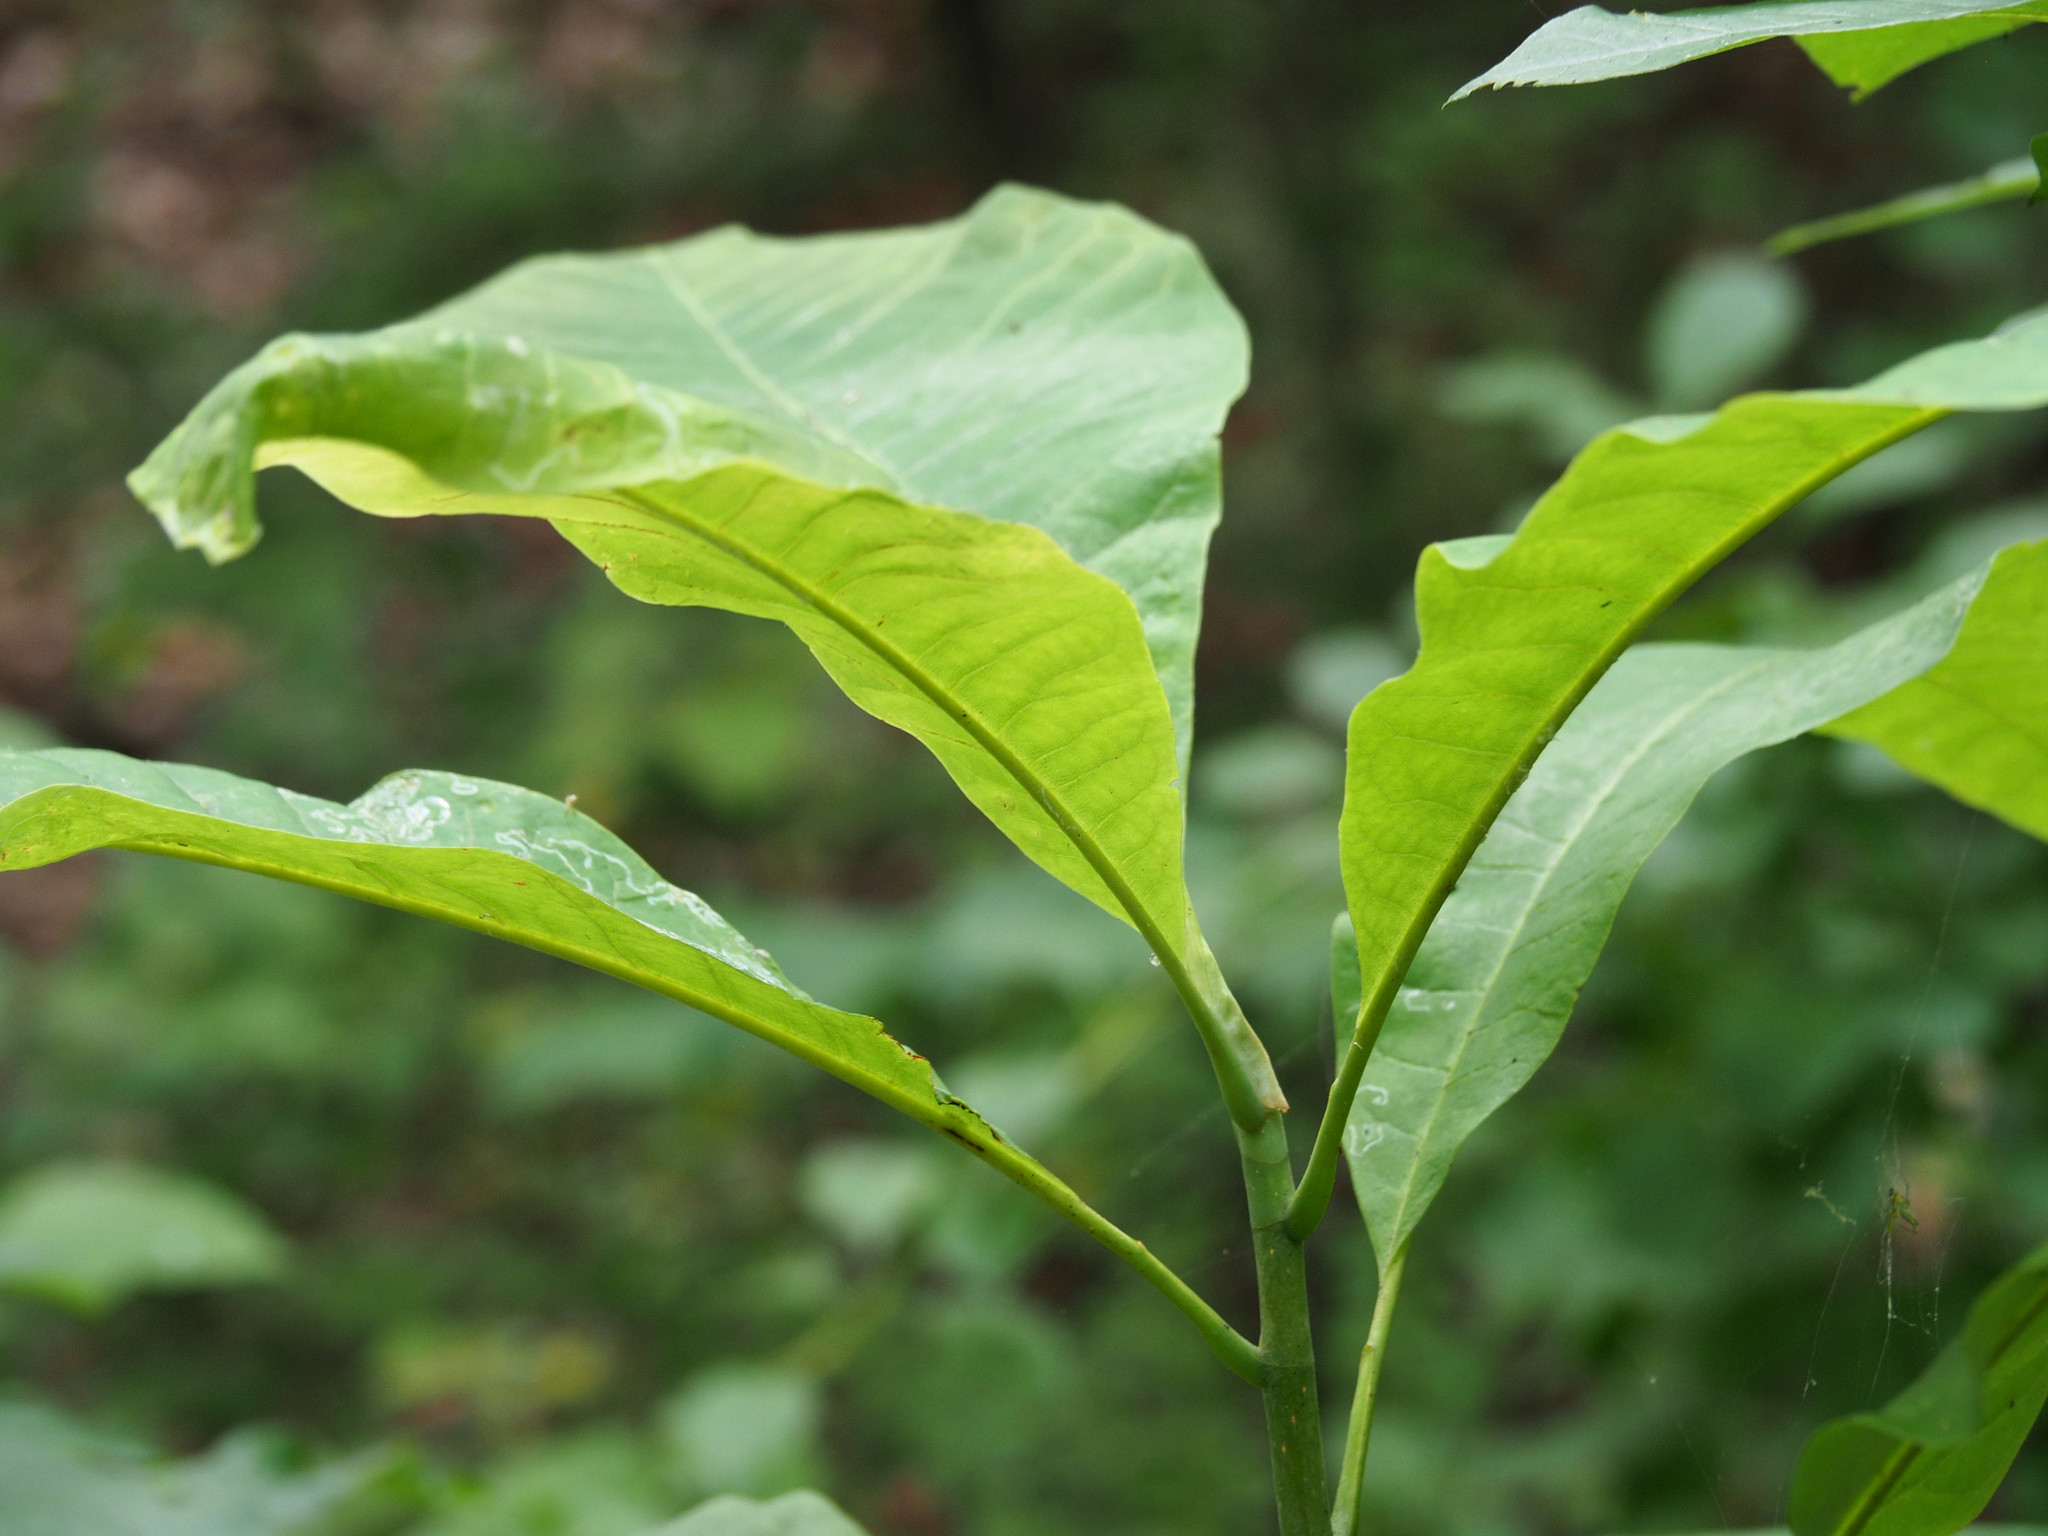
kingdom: Plantae
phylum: Tracheophyta
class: Magnoliopsida
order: Magnoliales
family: Magnoliaceae
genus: Magnolia
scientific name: Magnolia tripetala
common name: Umbrella magnolia
